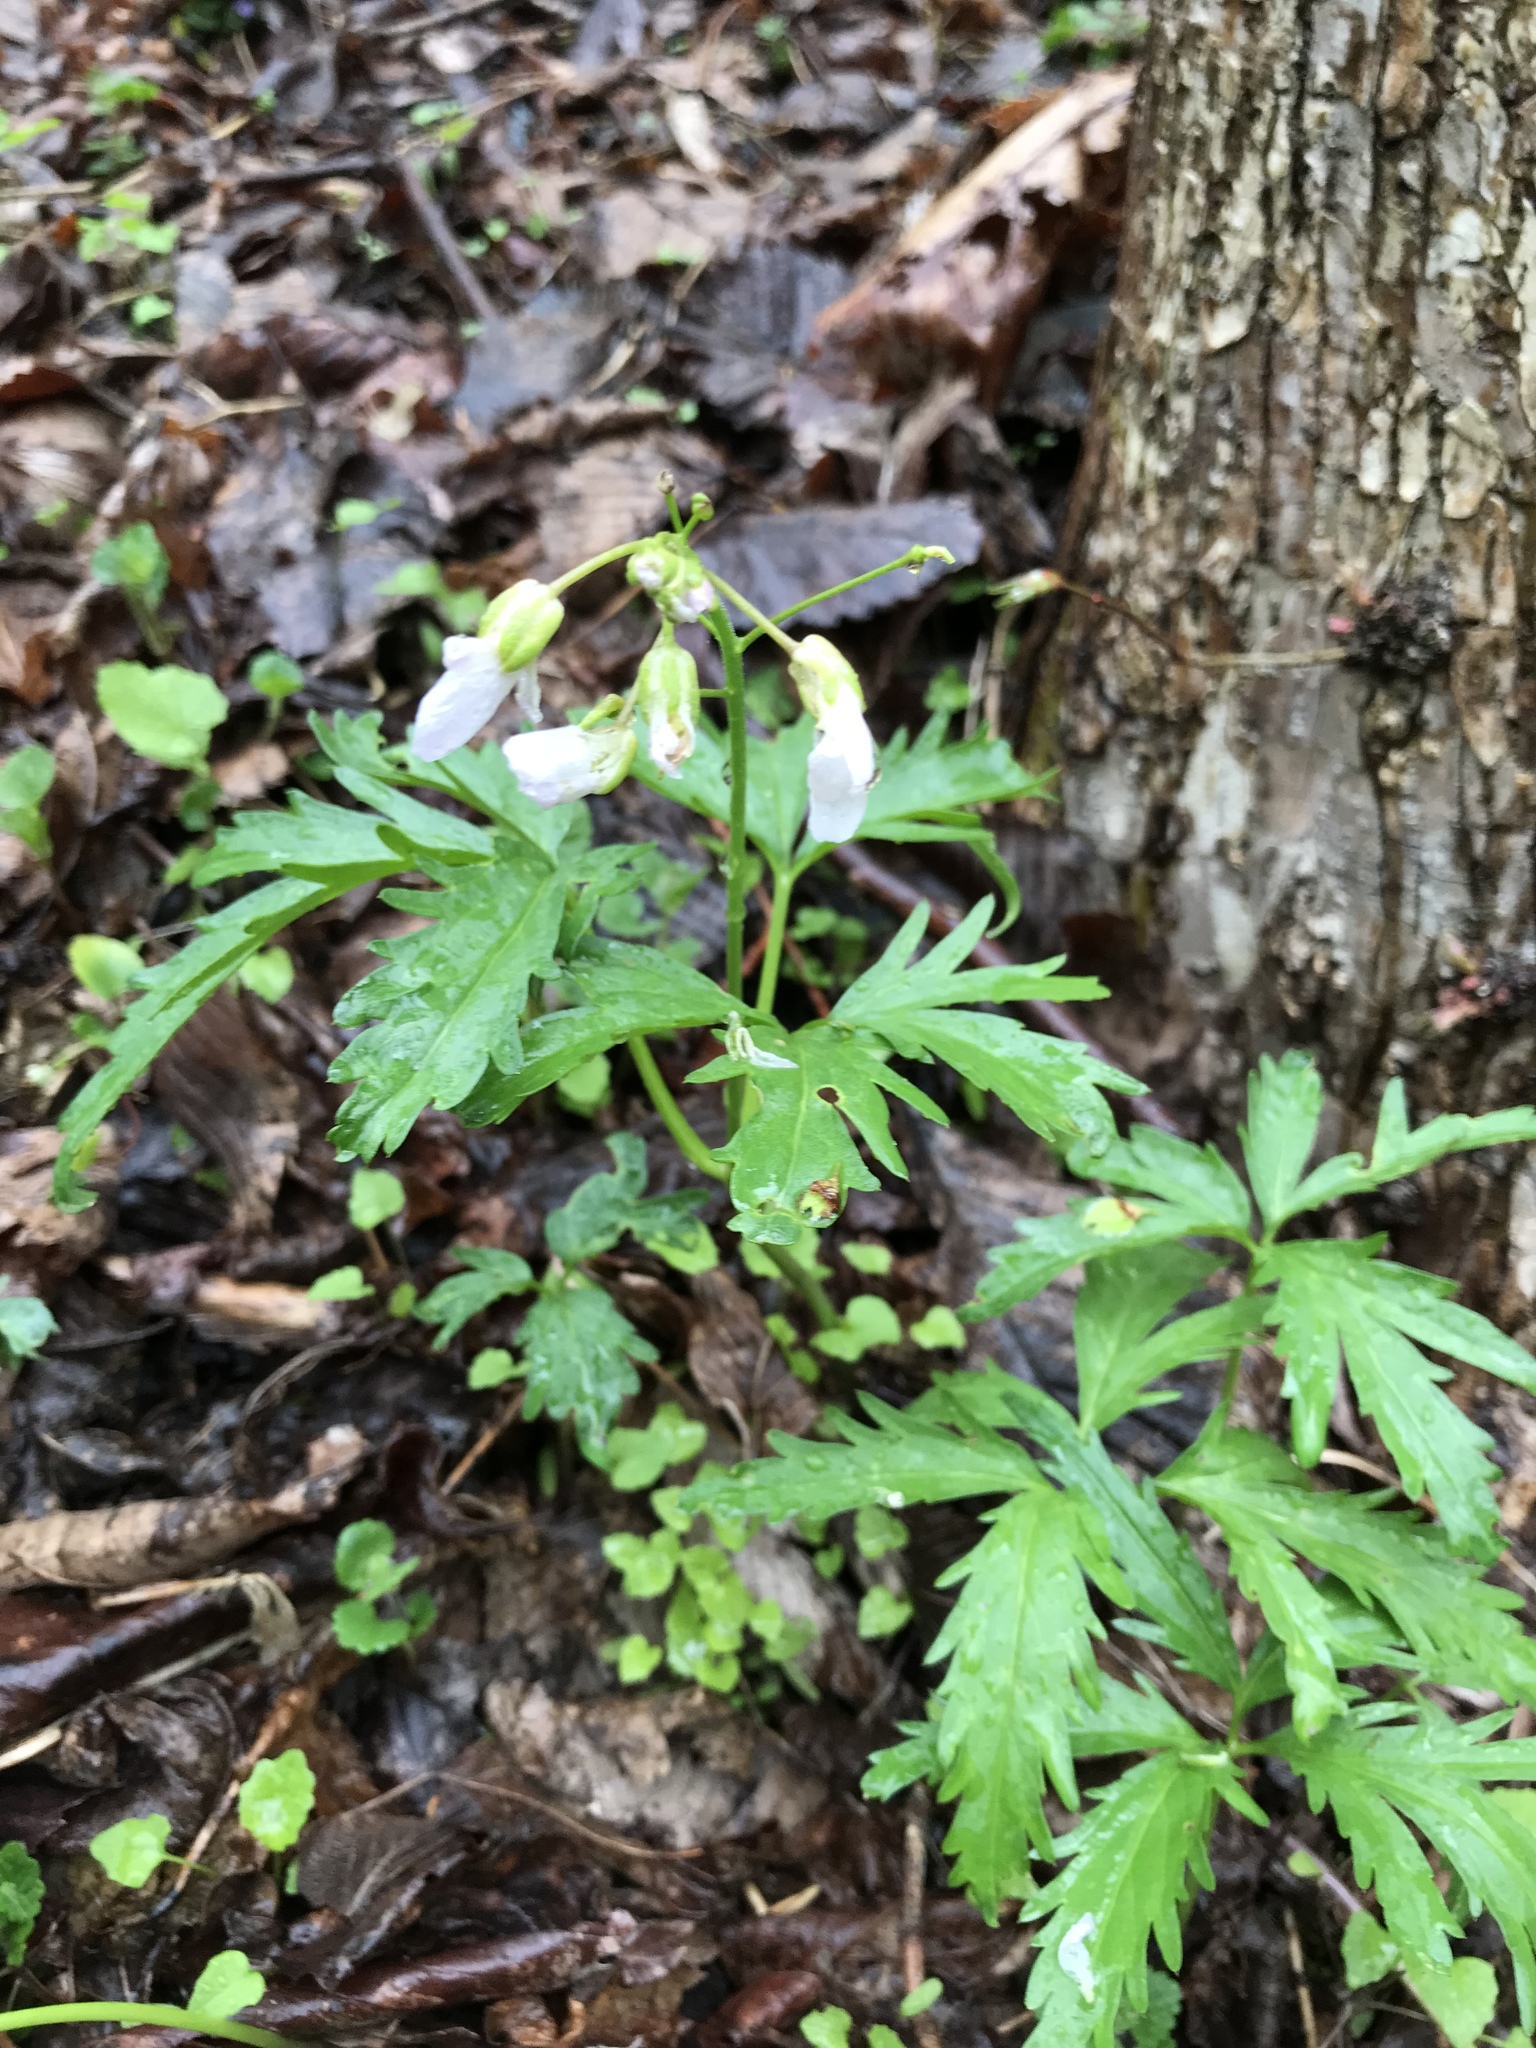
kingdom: Plantae
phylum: Tracheophyta
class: Magnoliopsida
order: Brassicales
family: Brassicaceae
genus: Cardamine
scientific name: Cardamine concatenata
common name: Cut-leaf toothcup
